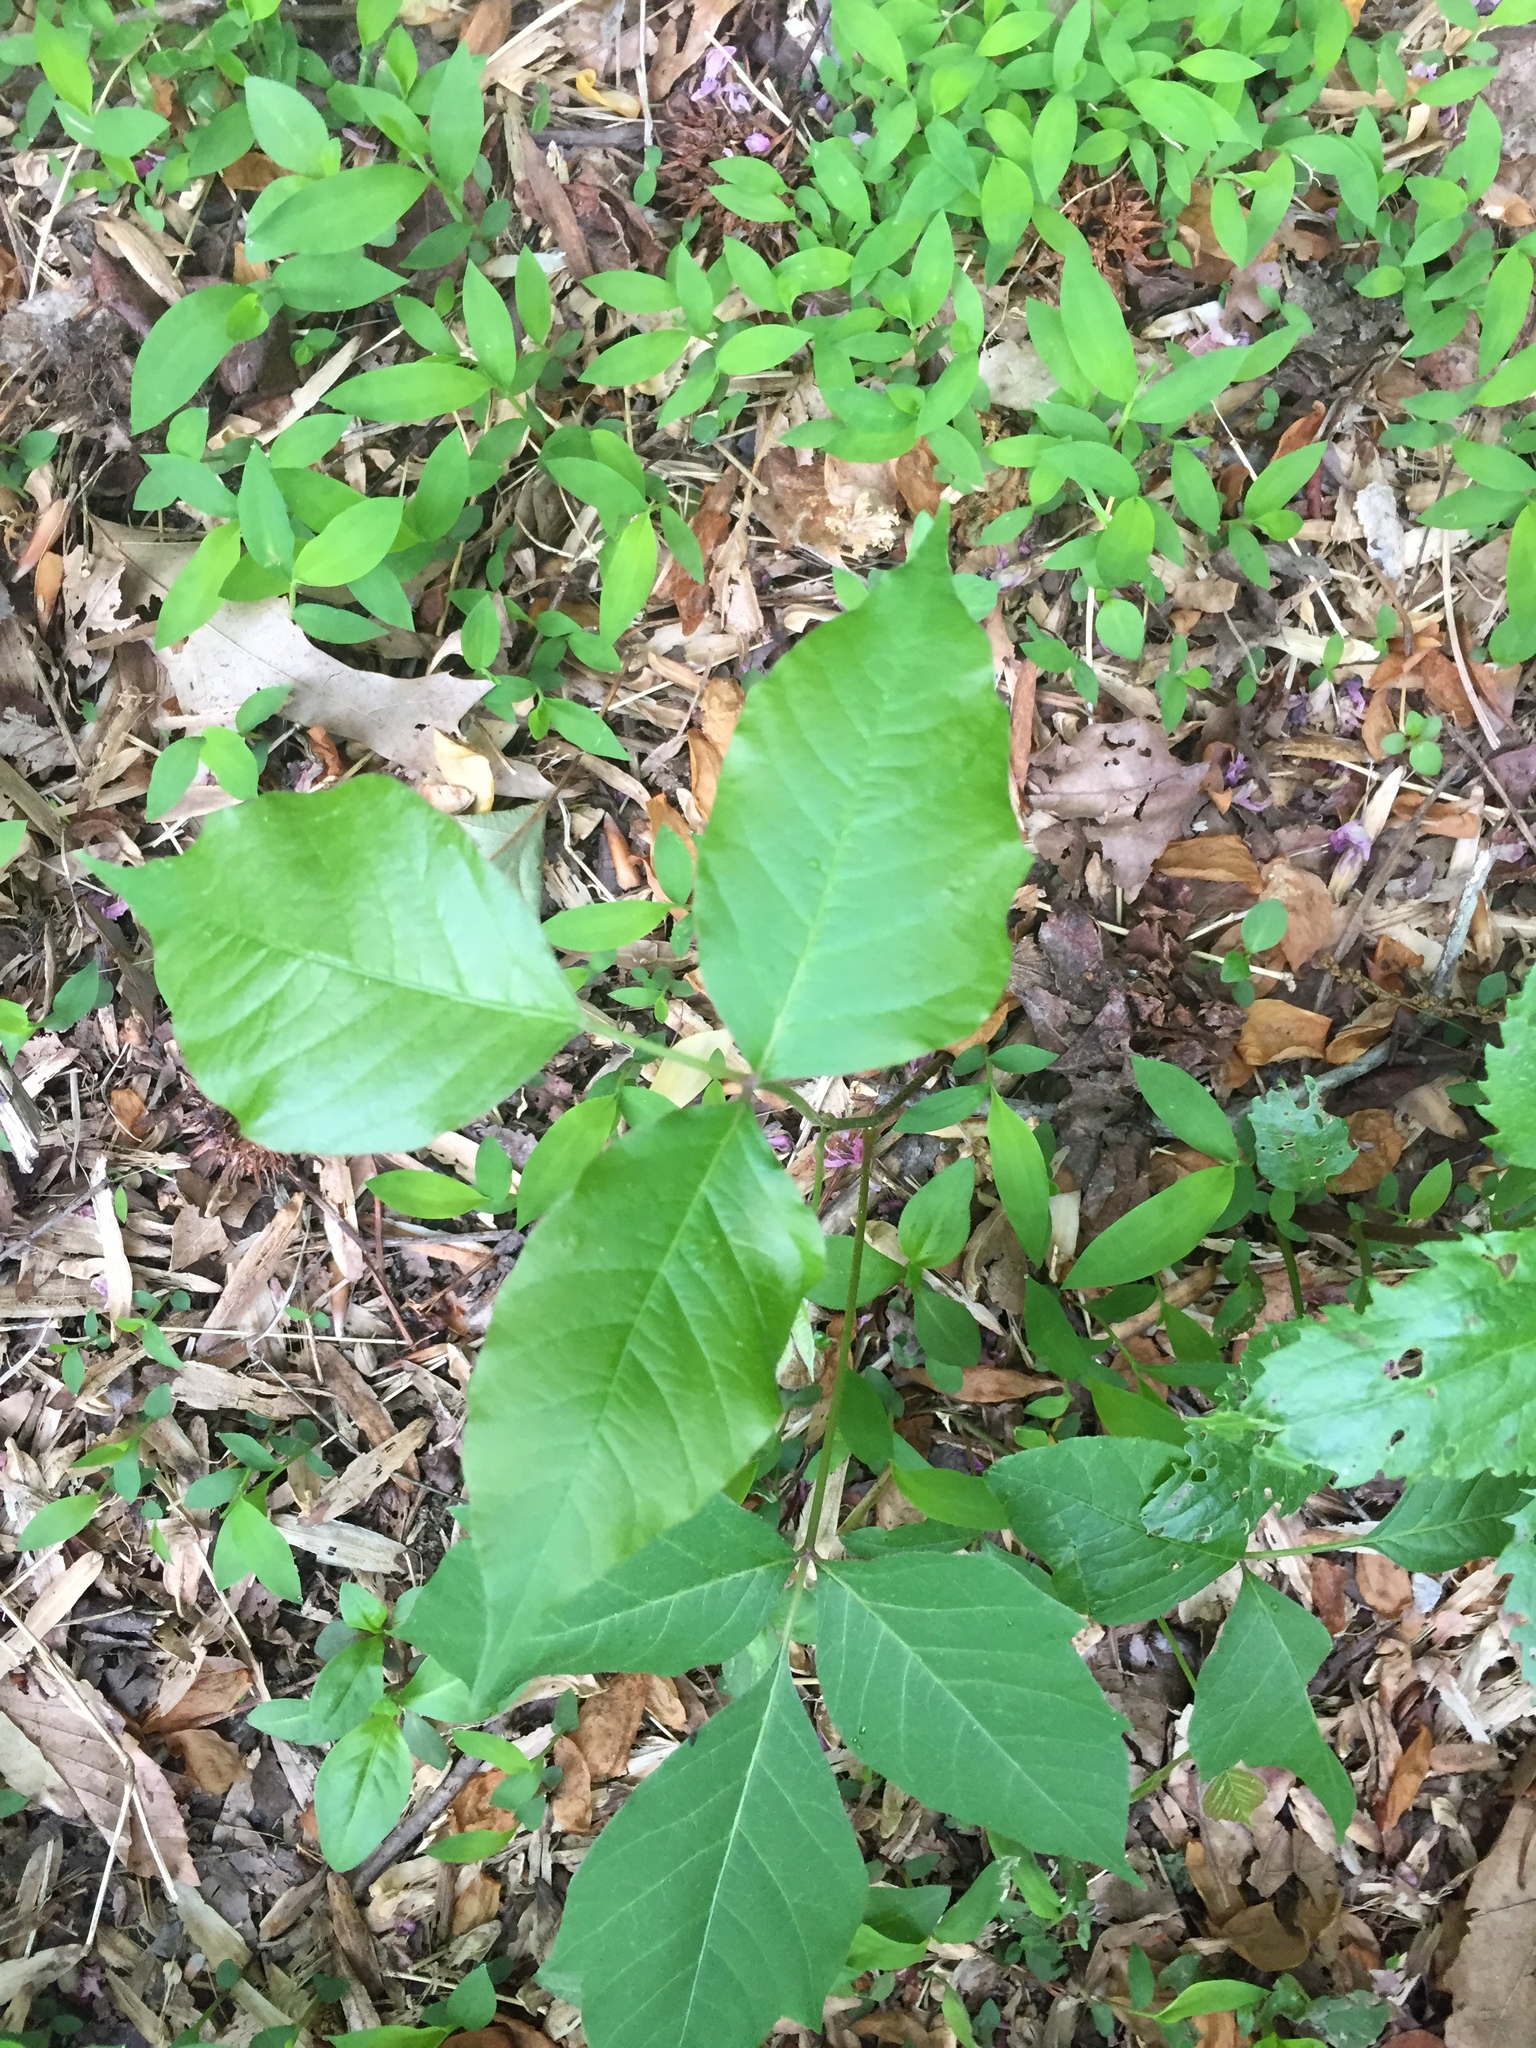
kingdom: Plantae
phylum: Tracheophyta
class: Magnoliopsida
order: Sapindales
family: Anacardiaceae
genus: Toxicodendron
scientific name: Toxicodendron radicans
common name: Poison ivy
